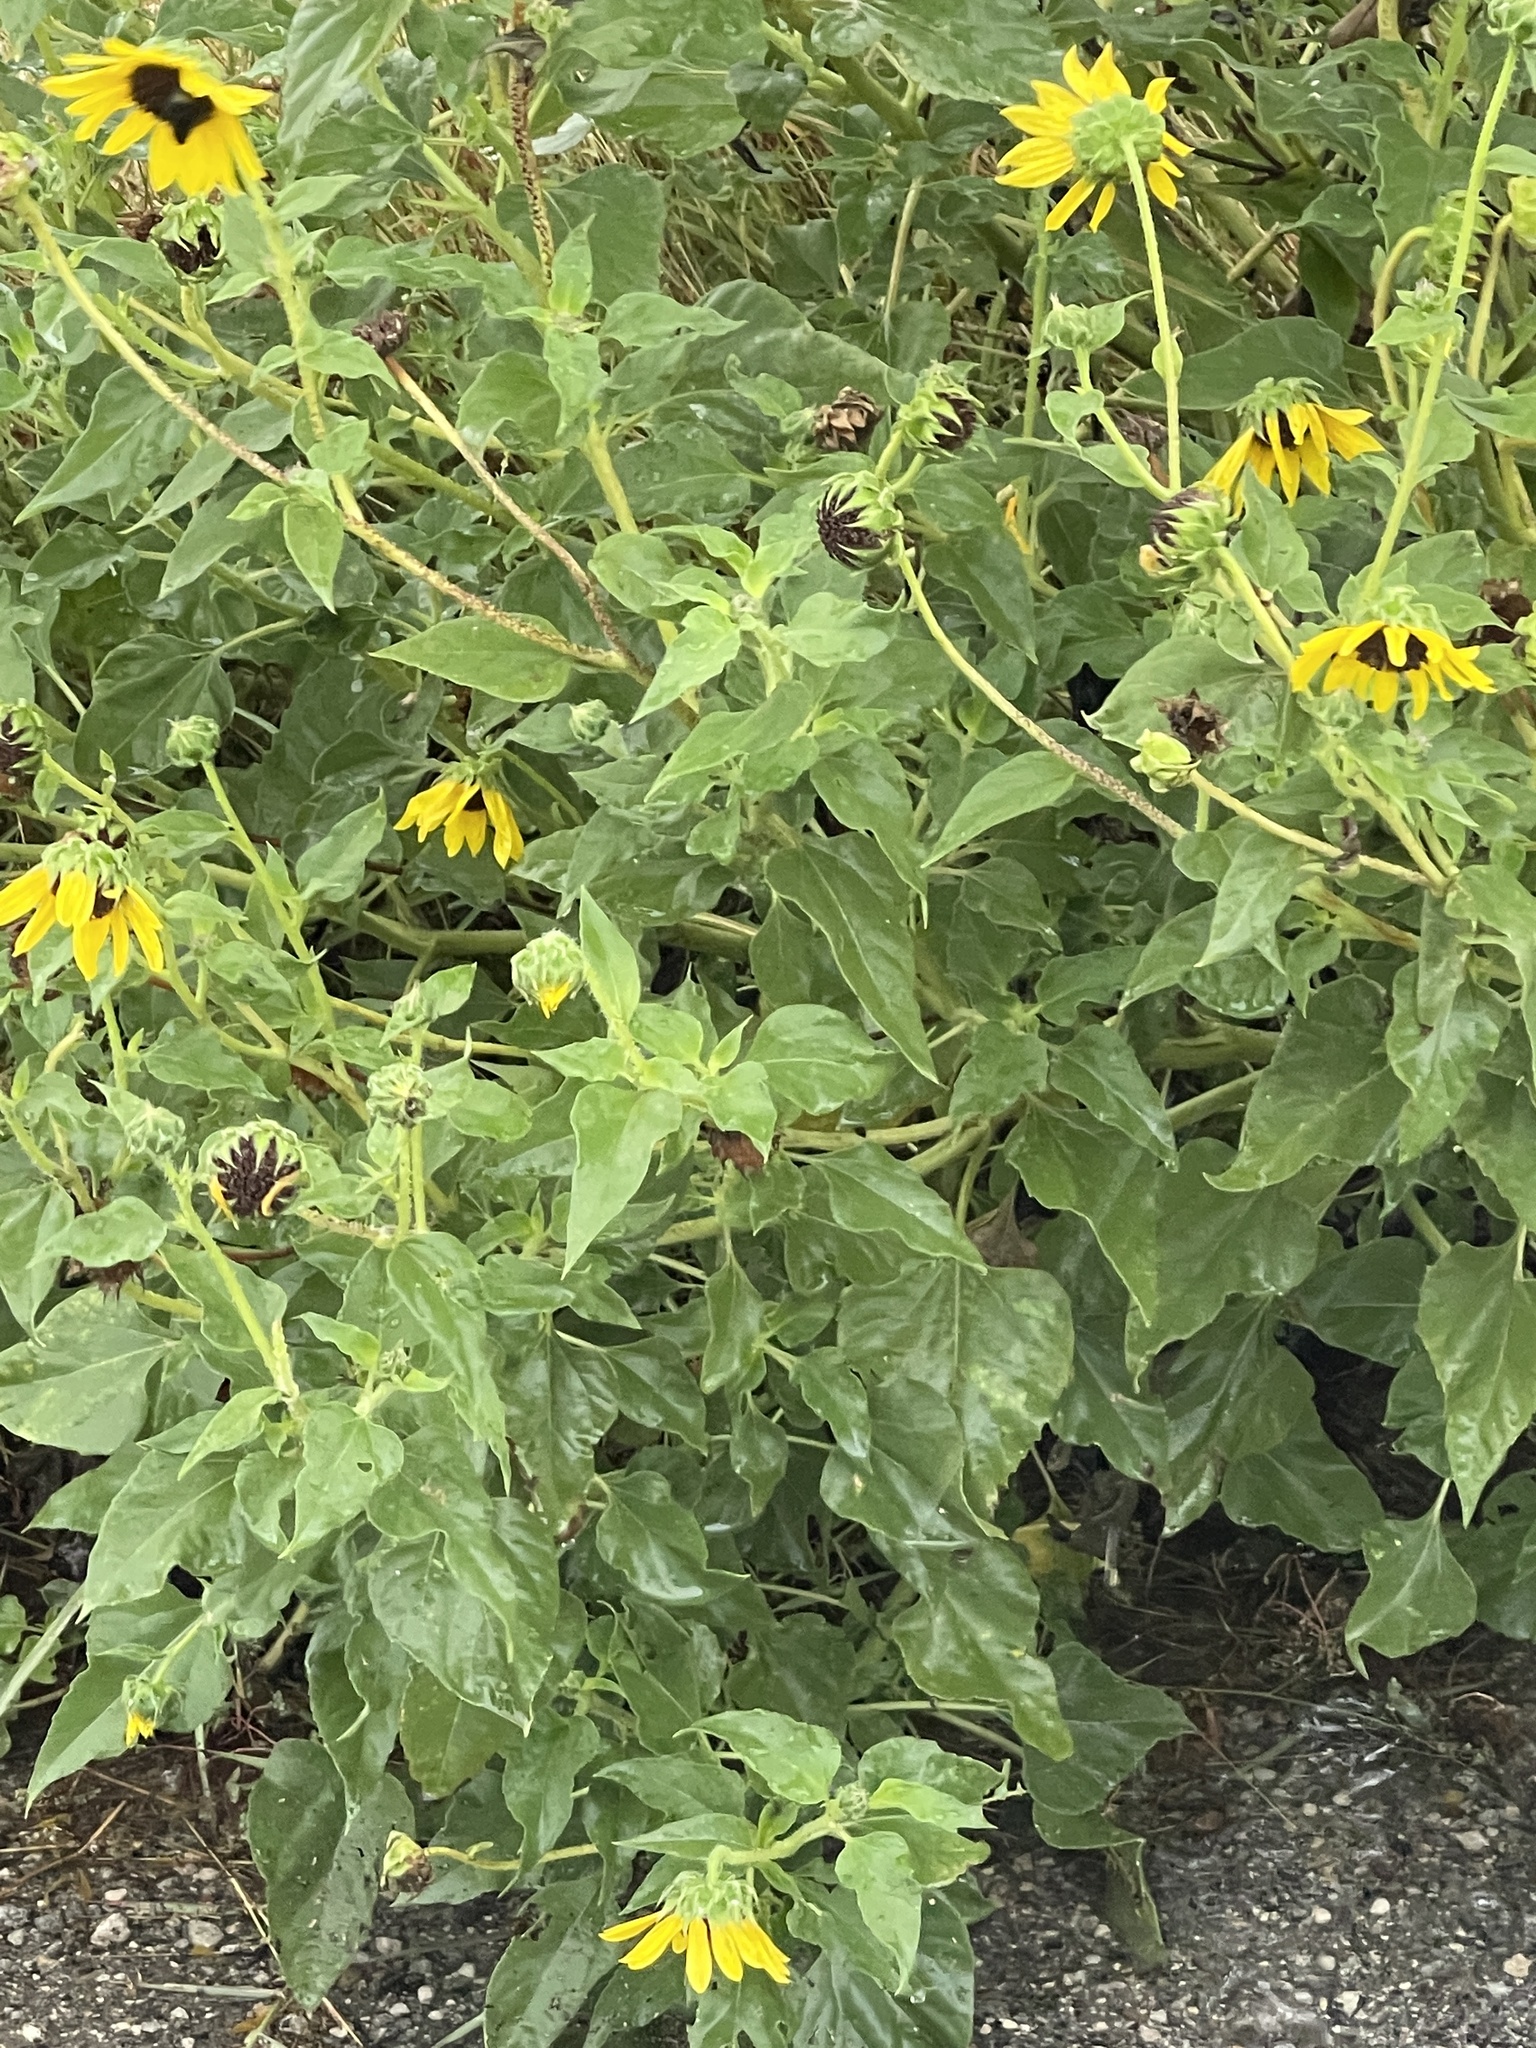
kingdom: Plantae
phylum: Tracheophyta
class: Magnoliopsida
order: Asterales
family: Asteraceae
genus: Helianthus
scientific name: Helianthus annuus
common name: Sunflower
